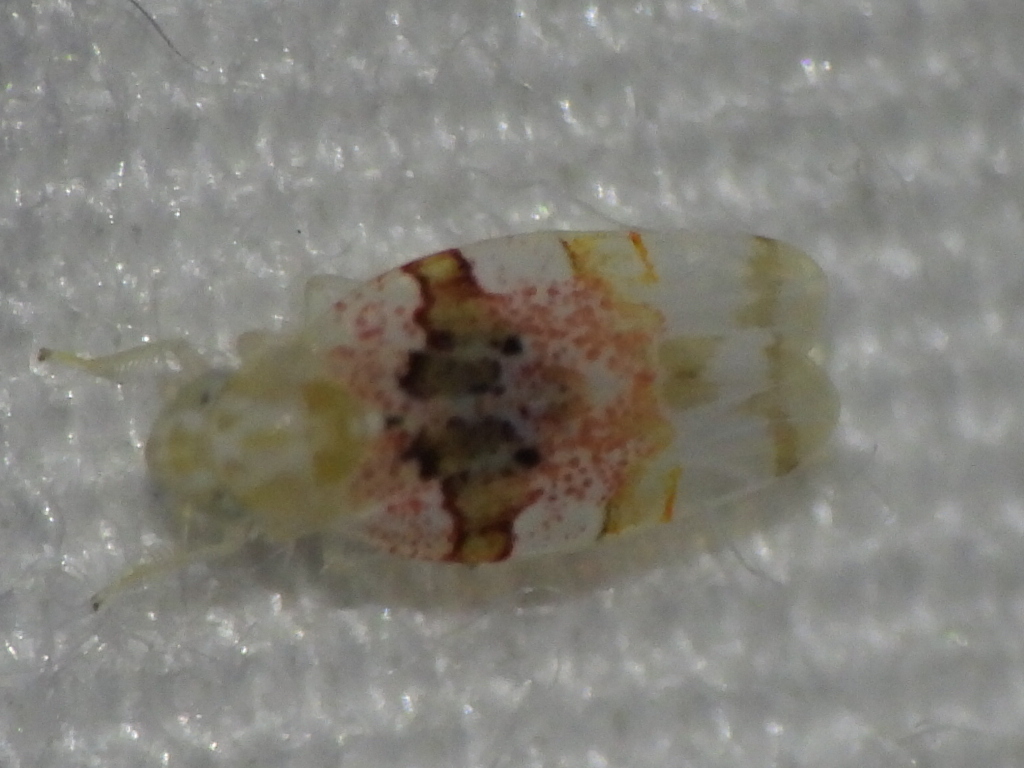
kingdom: Animalia
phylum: Arthropoda
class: Insecta
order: Hemiptera
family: Cicadellidae
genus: Hymetta
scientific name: Hymetta anthisma
